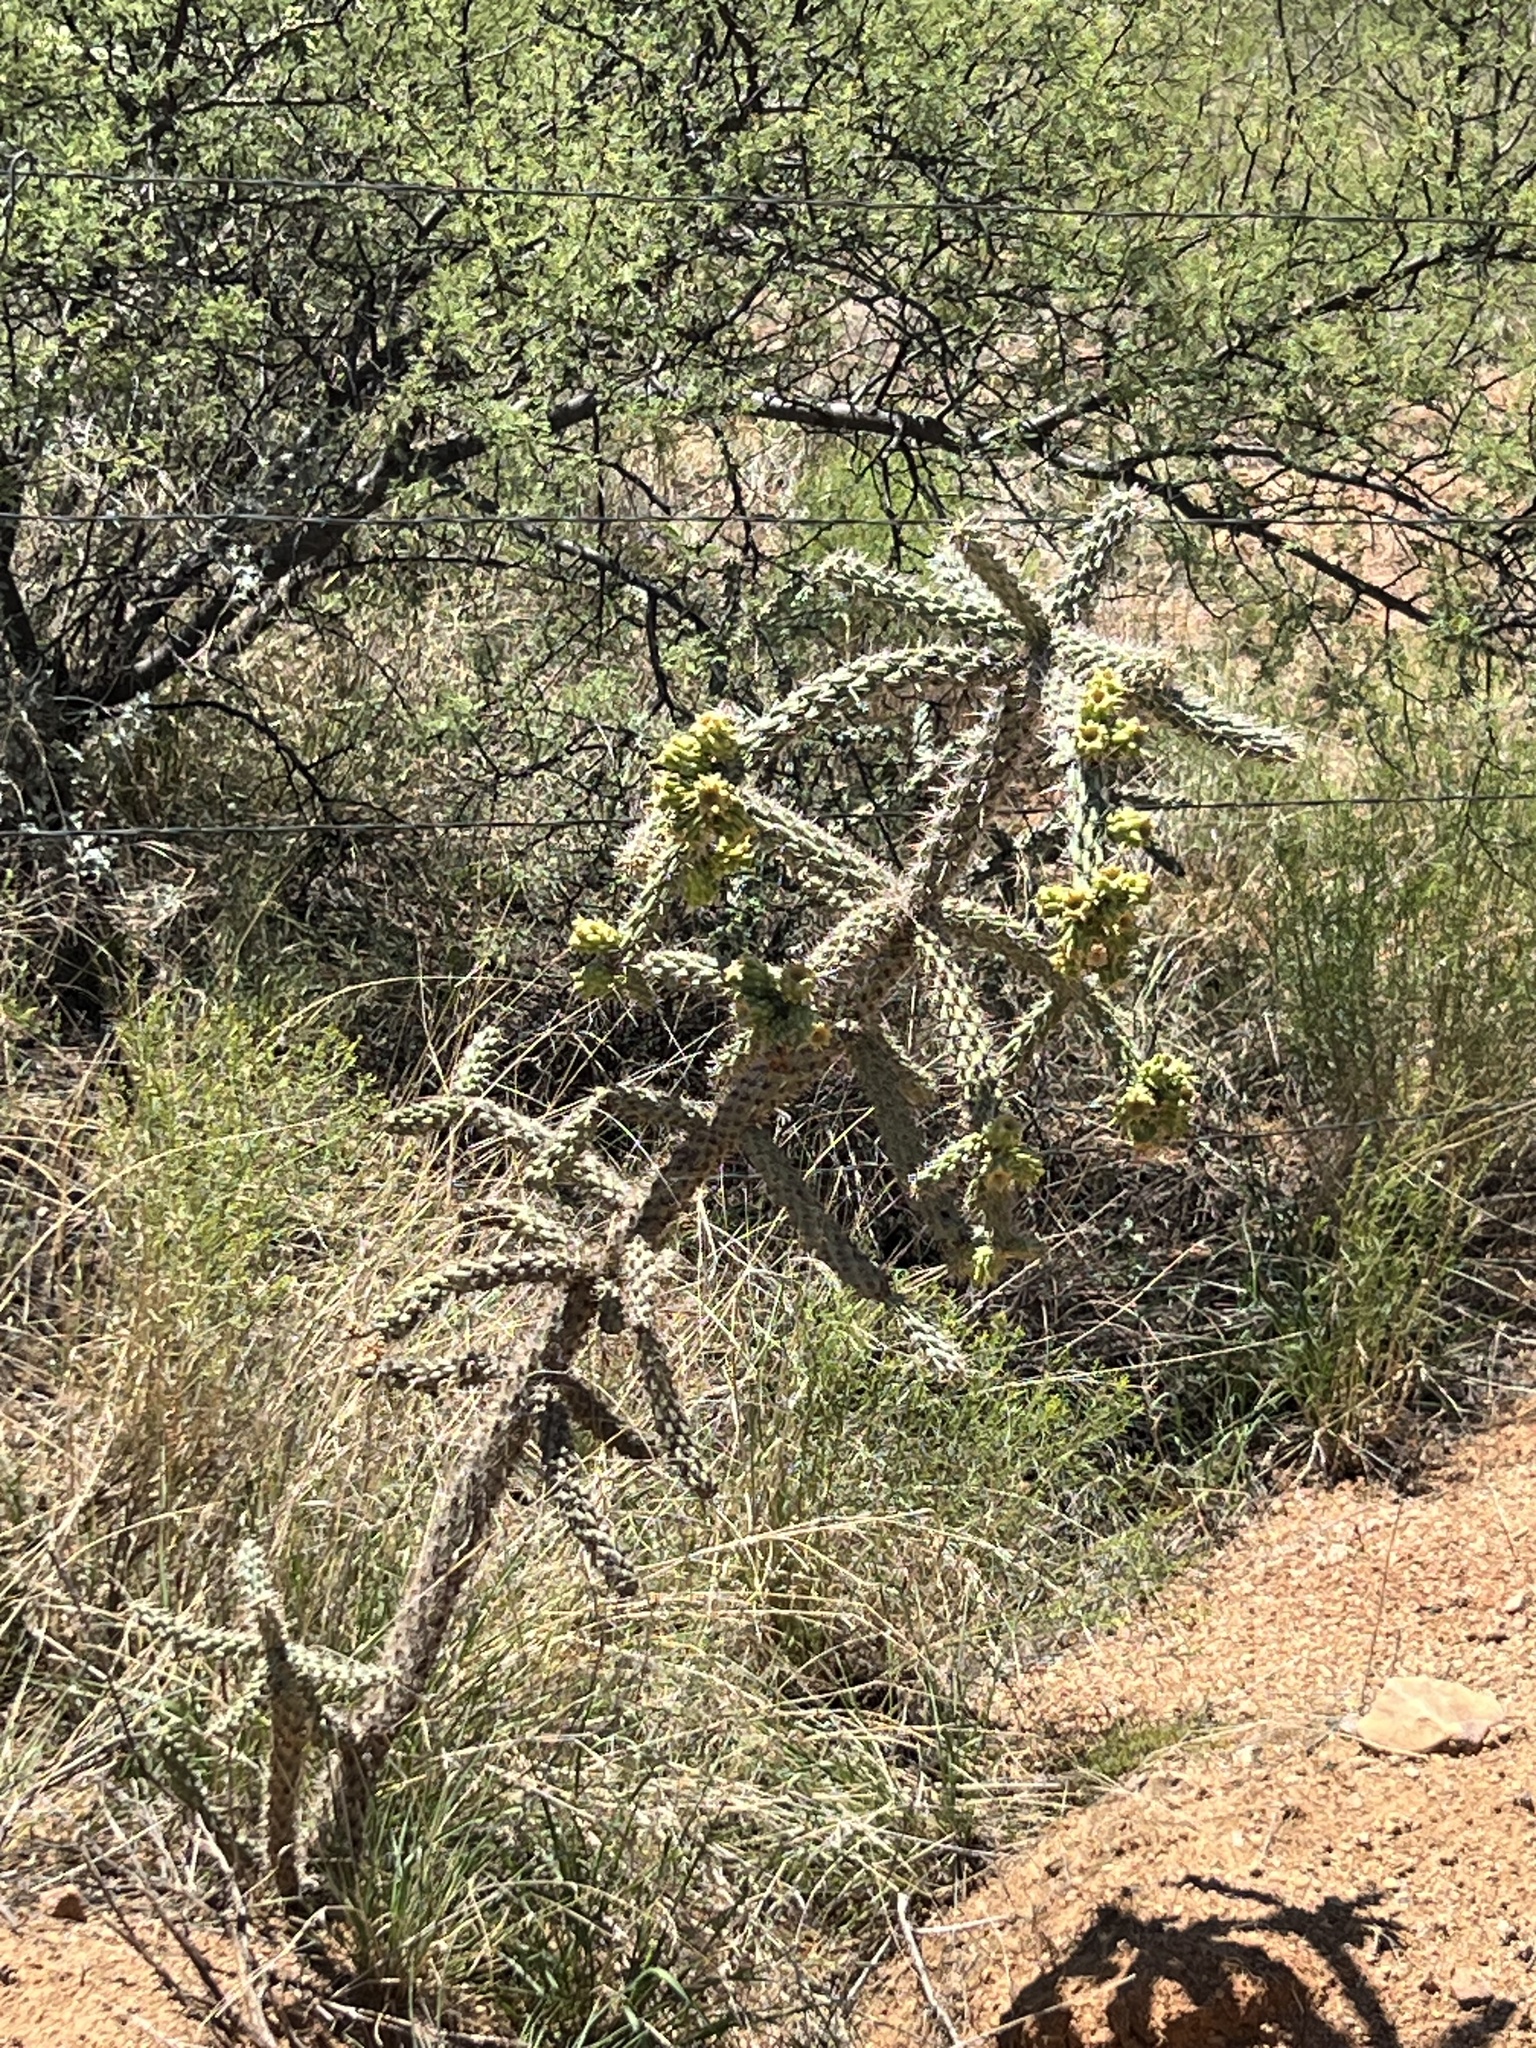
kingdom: Plantae
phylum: Tracheophyta
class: Magnoliopsida
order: Caryophyllales
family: Cactaceae
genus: Cylindropuntia
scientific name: Cylindropuntia imbricata
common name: Candelabrum cactus
